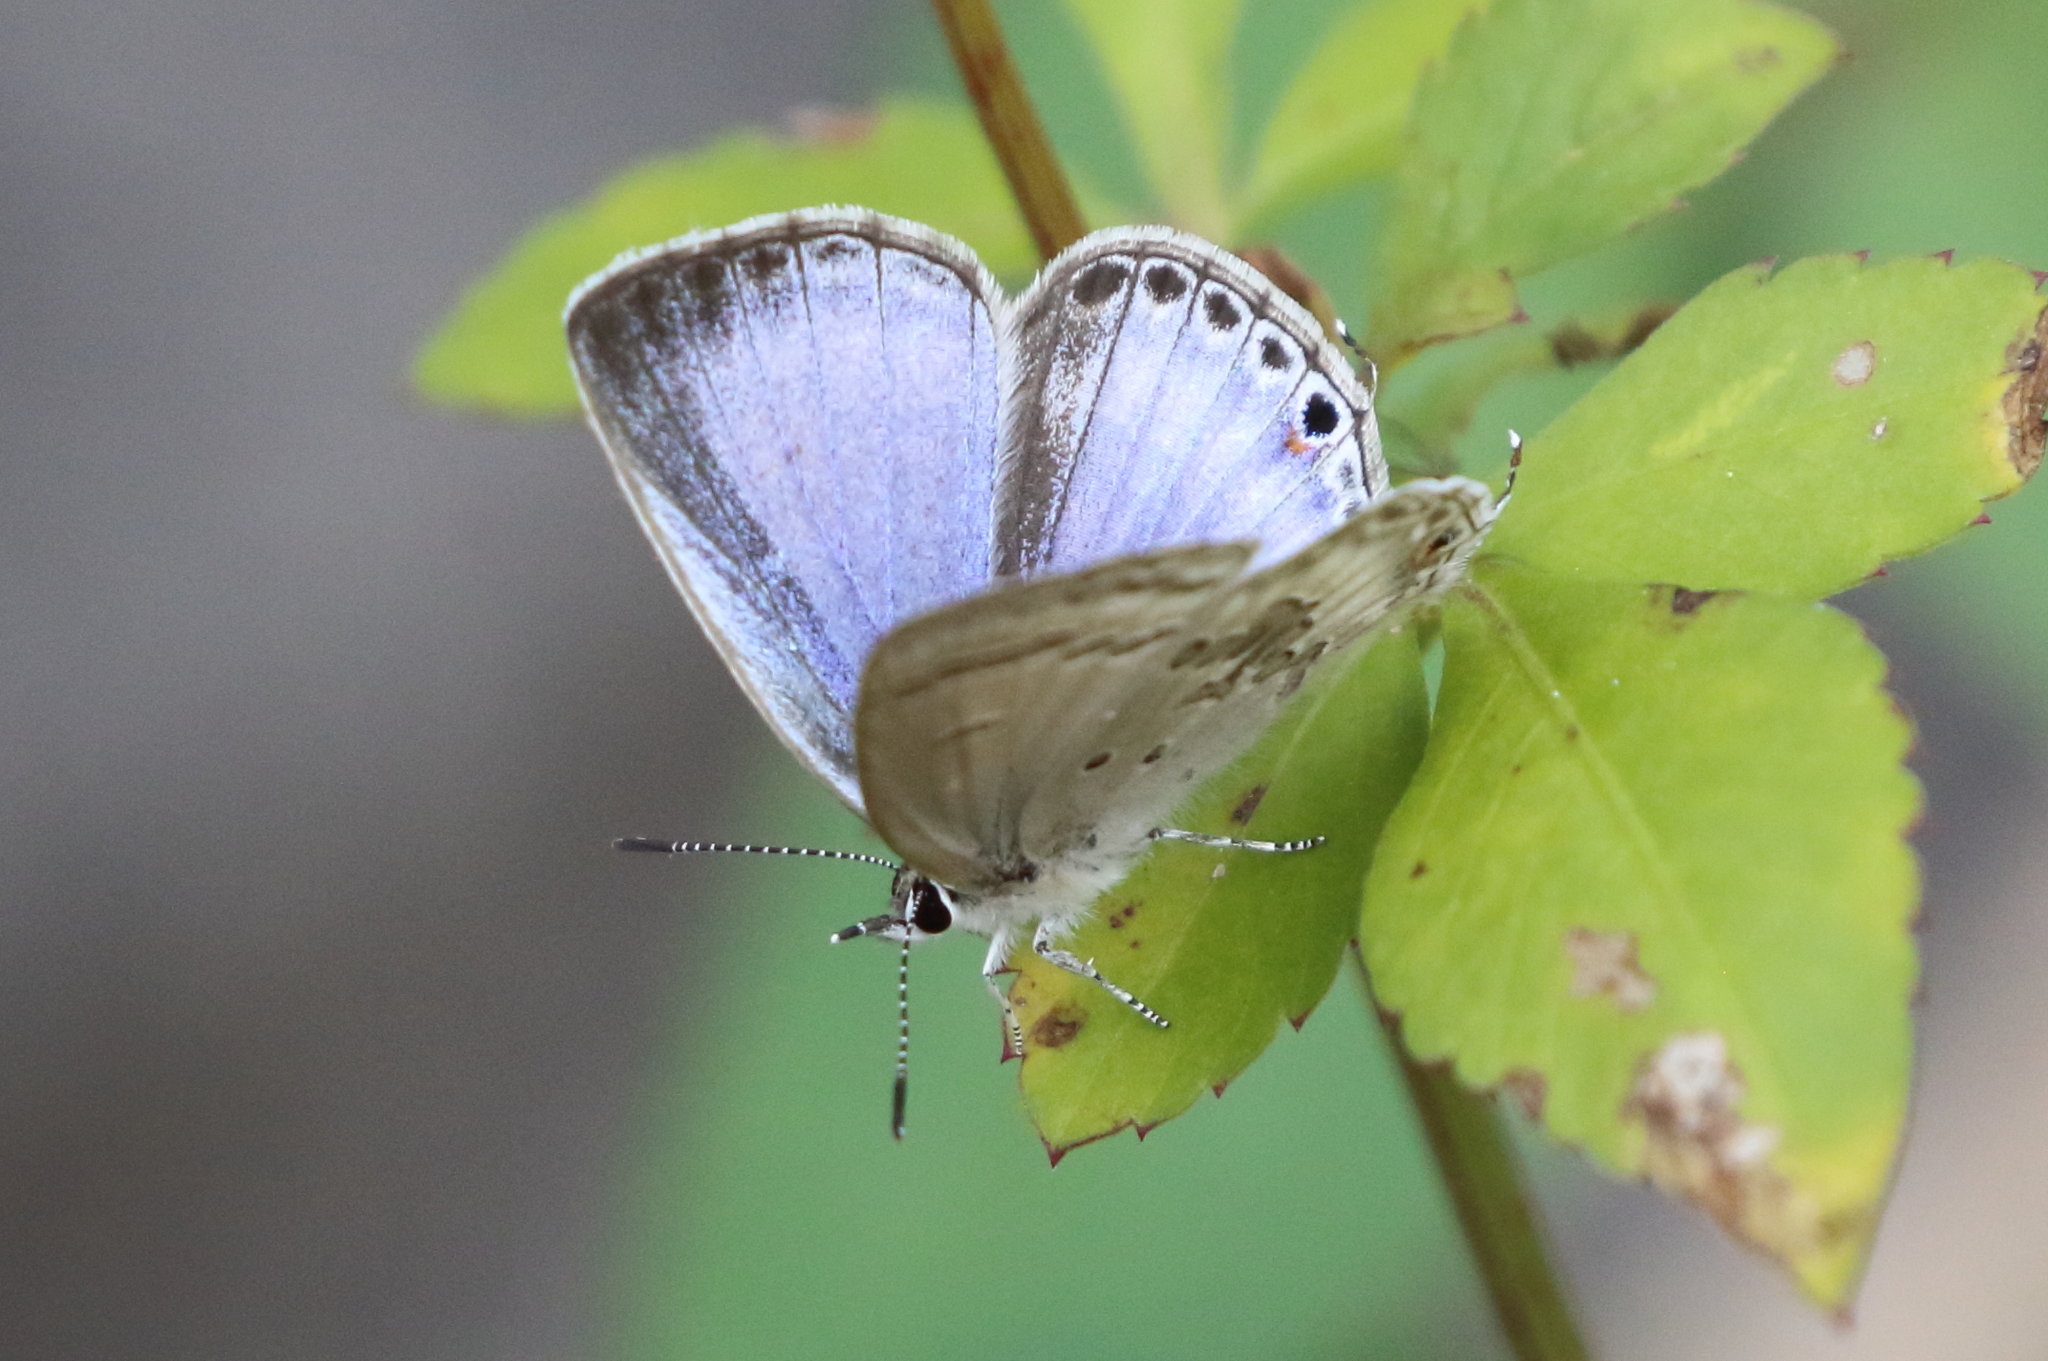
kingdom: Animalia
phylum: Arthropoda
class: Insecta
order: Lepidoptera
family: Lycaenidae
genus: Luthrodes
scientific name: Luthrodes pandava
